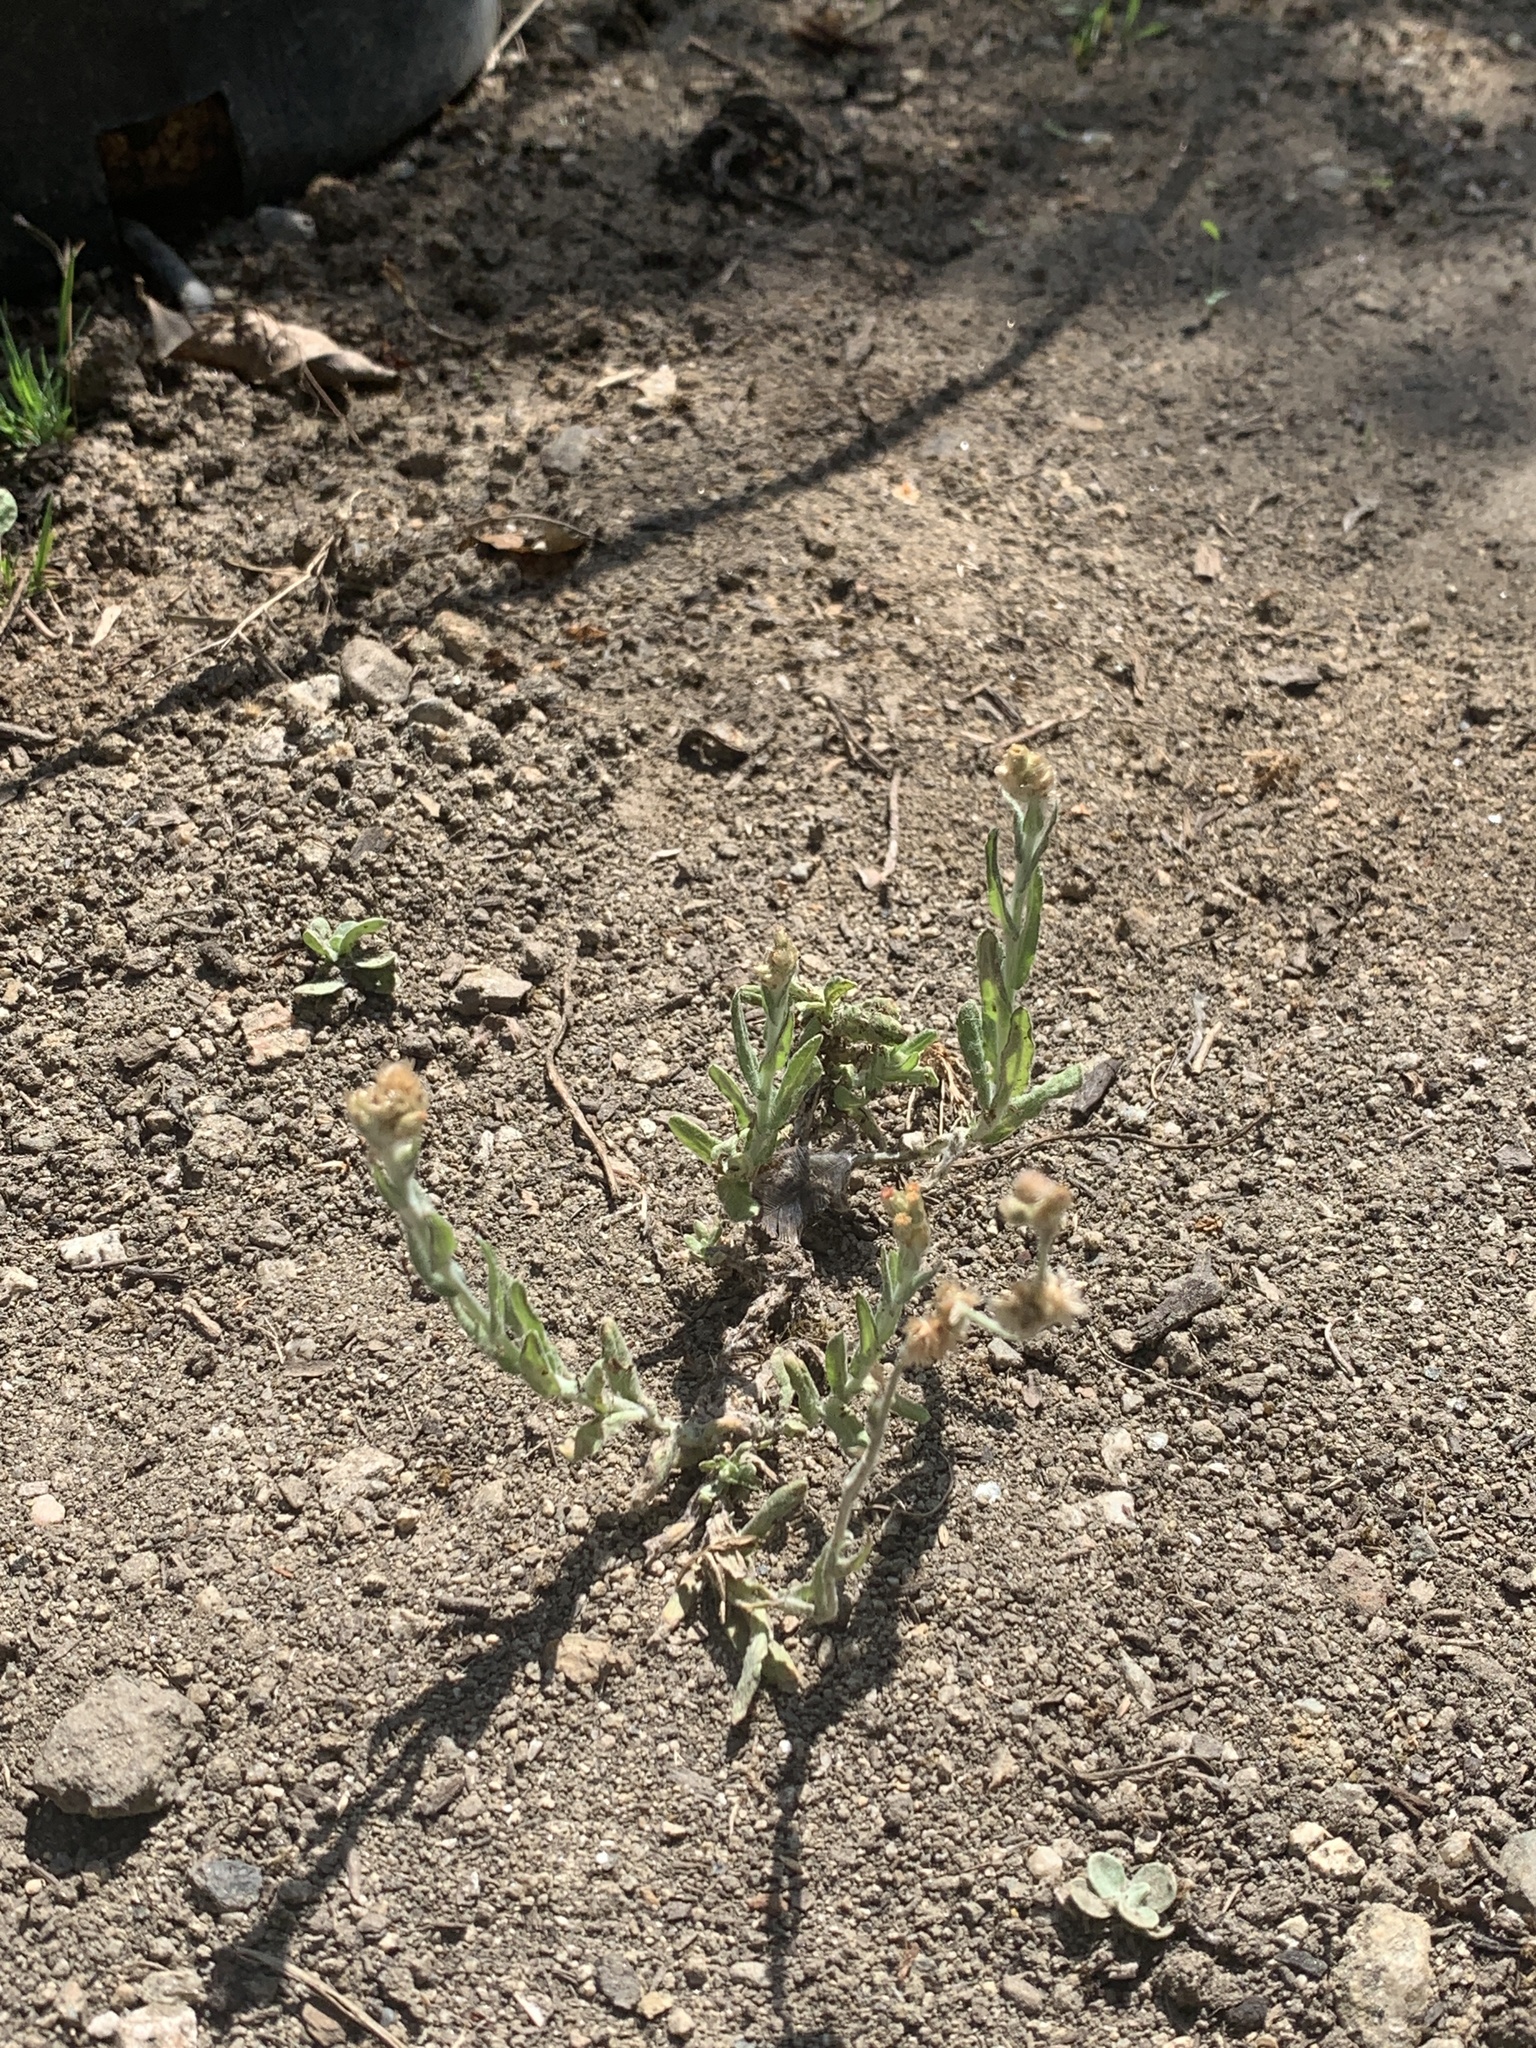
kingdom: Plantae
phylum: Tracheophyta
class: Magnoliopsida
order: Asterales
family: Asteraceae
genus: Helichrysum
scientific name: Helichrysum luteoalbum
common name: Daisy
